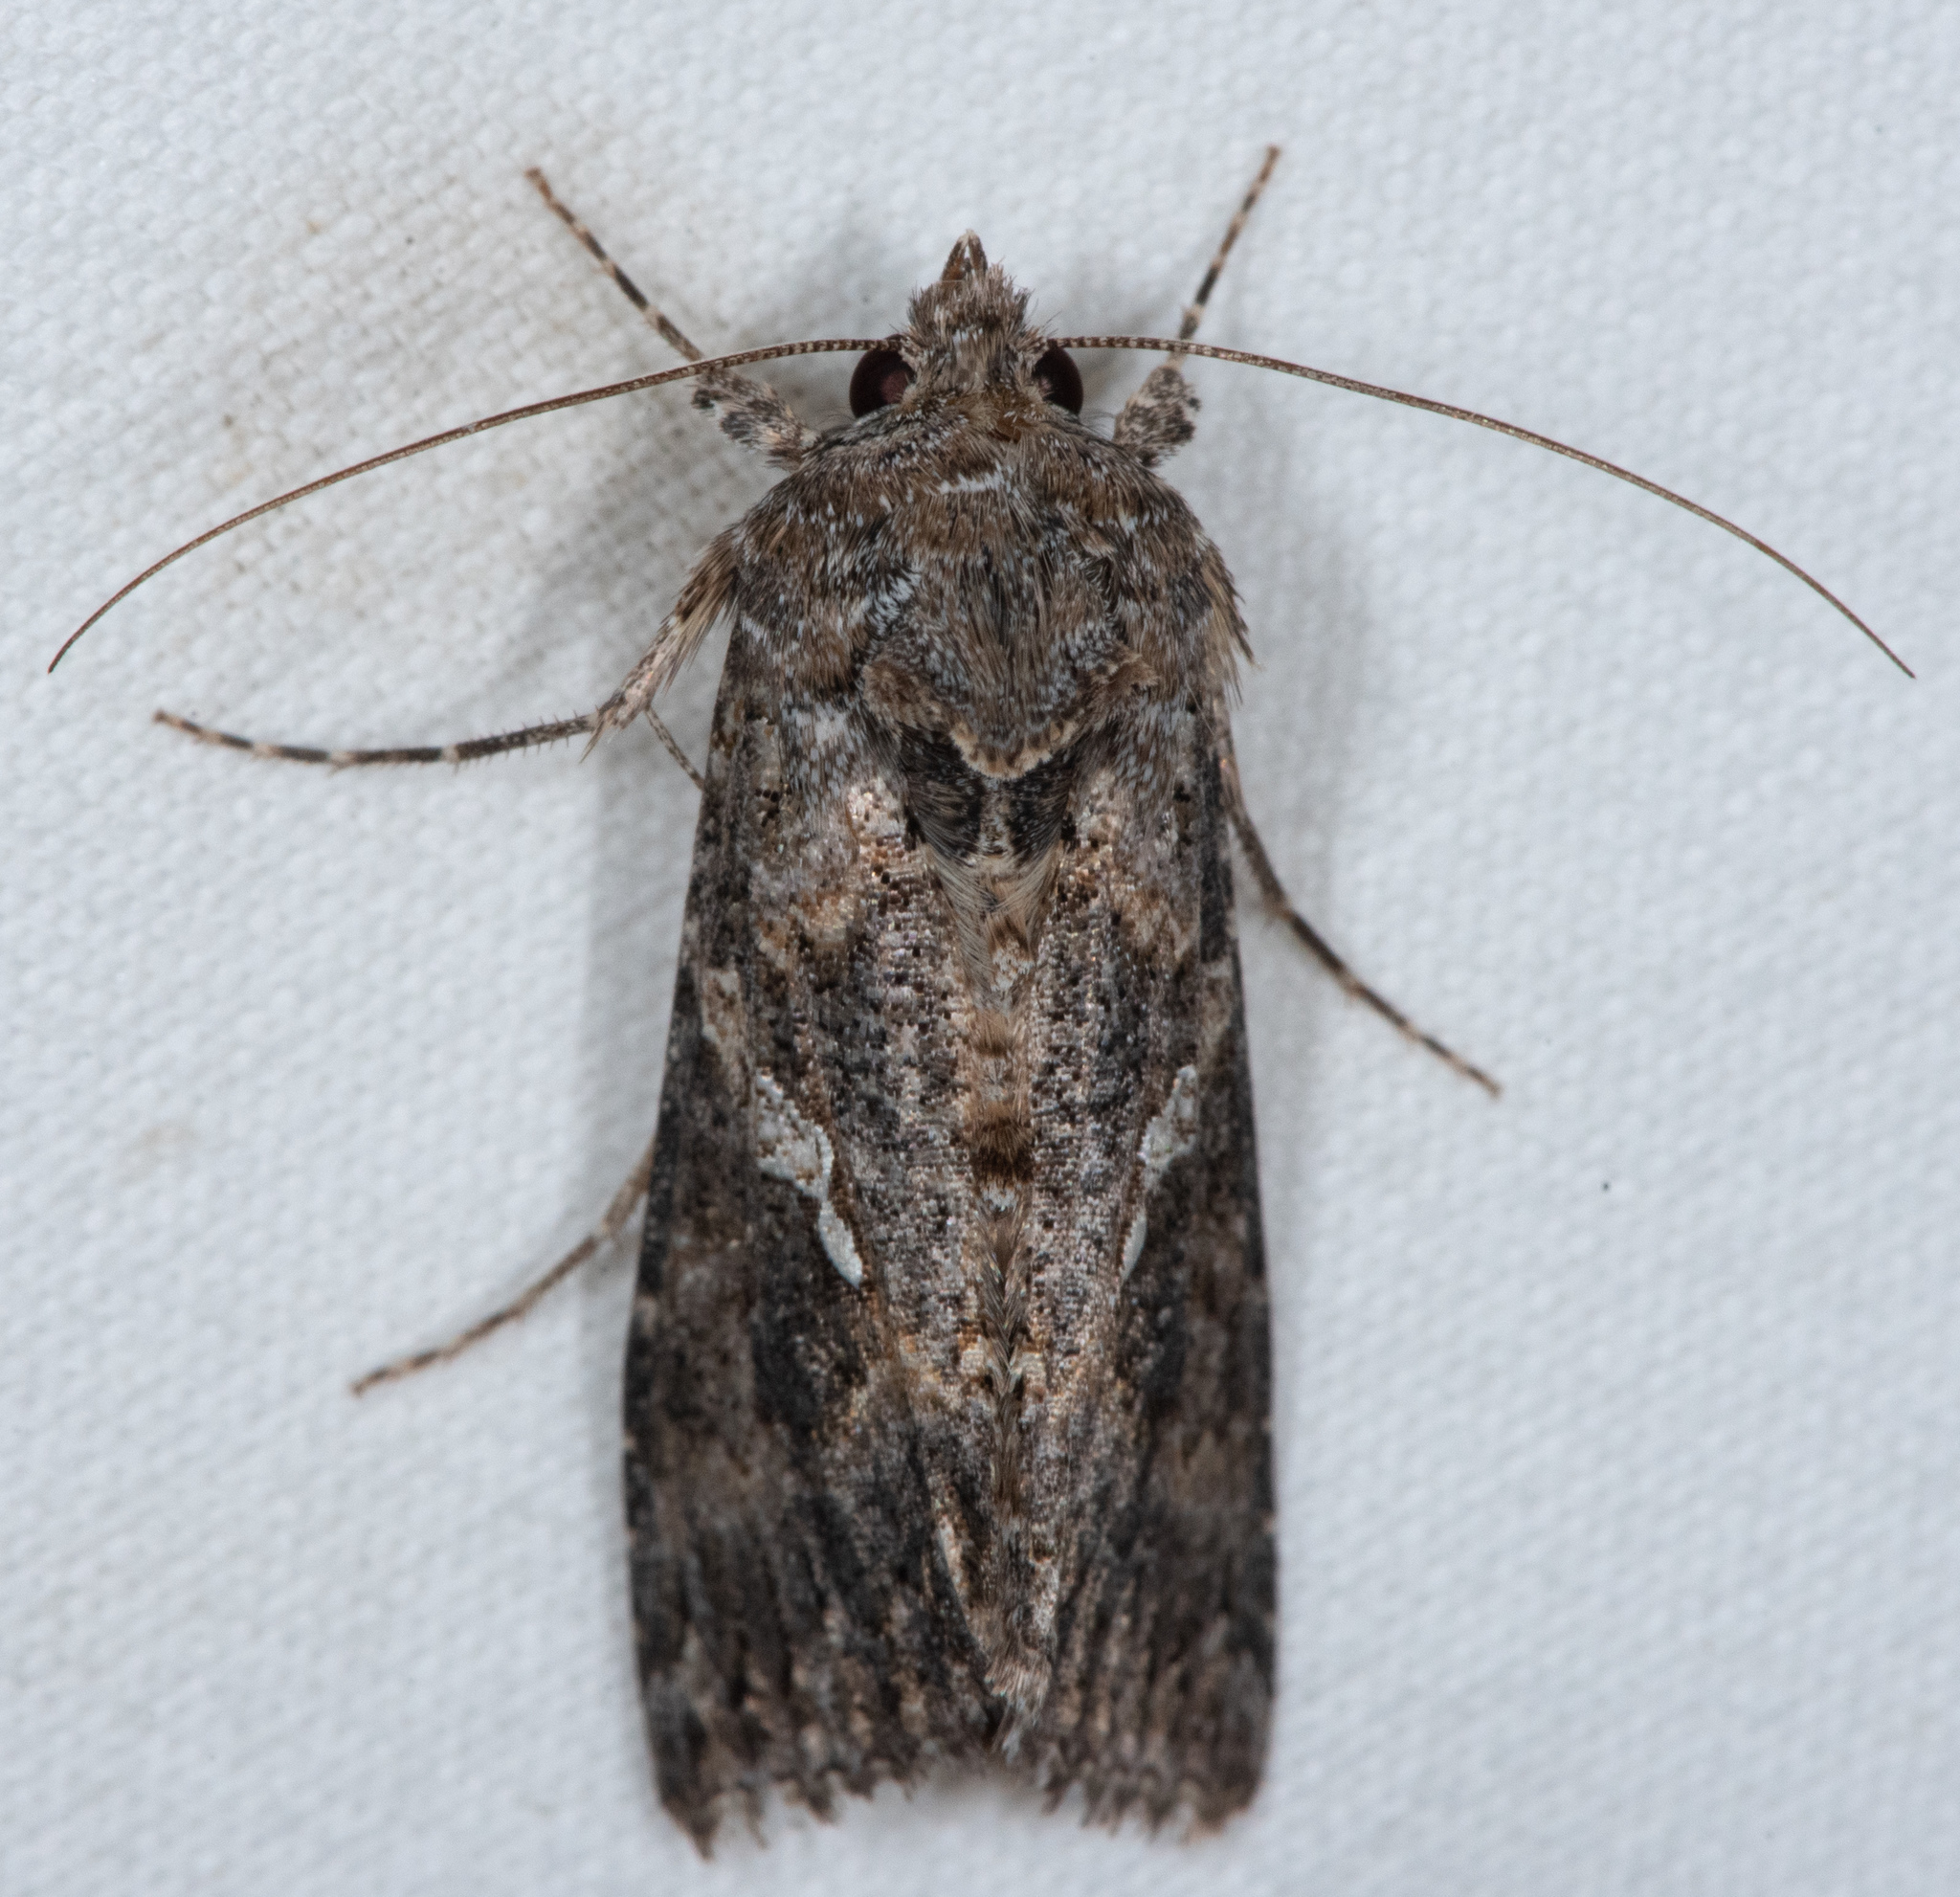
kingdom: Animalia
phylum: Arthropoda
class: Insecta
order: Lepidoptera
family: Noctuidae
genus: Trichoplusia
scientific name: Trichoplusia ni
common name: Ni moth
